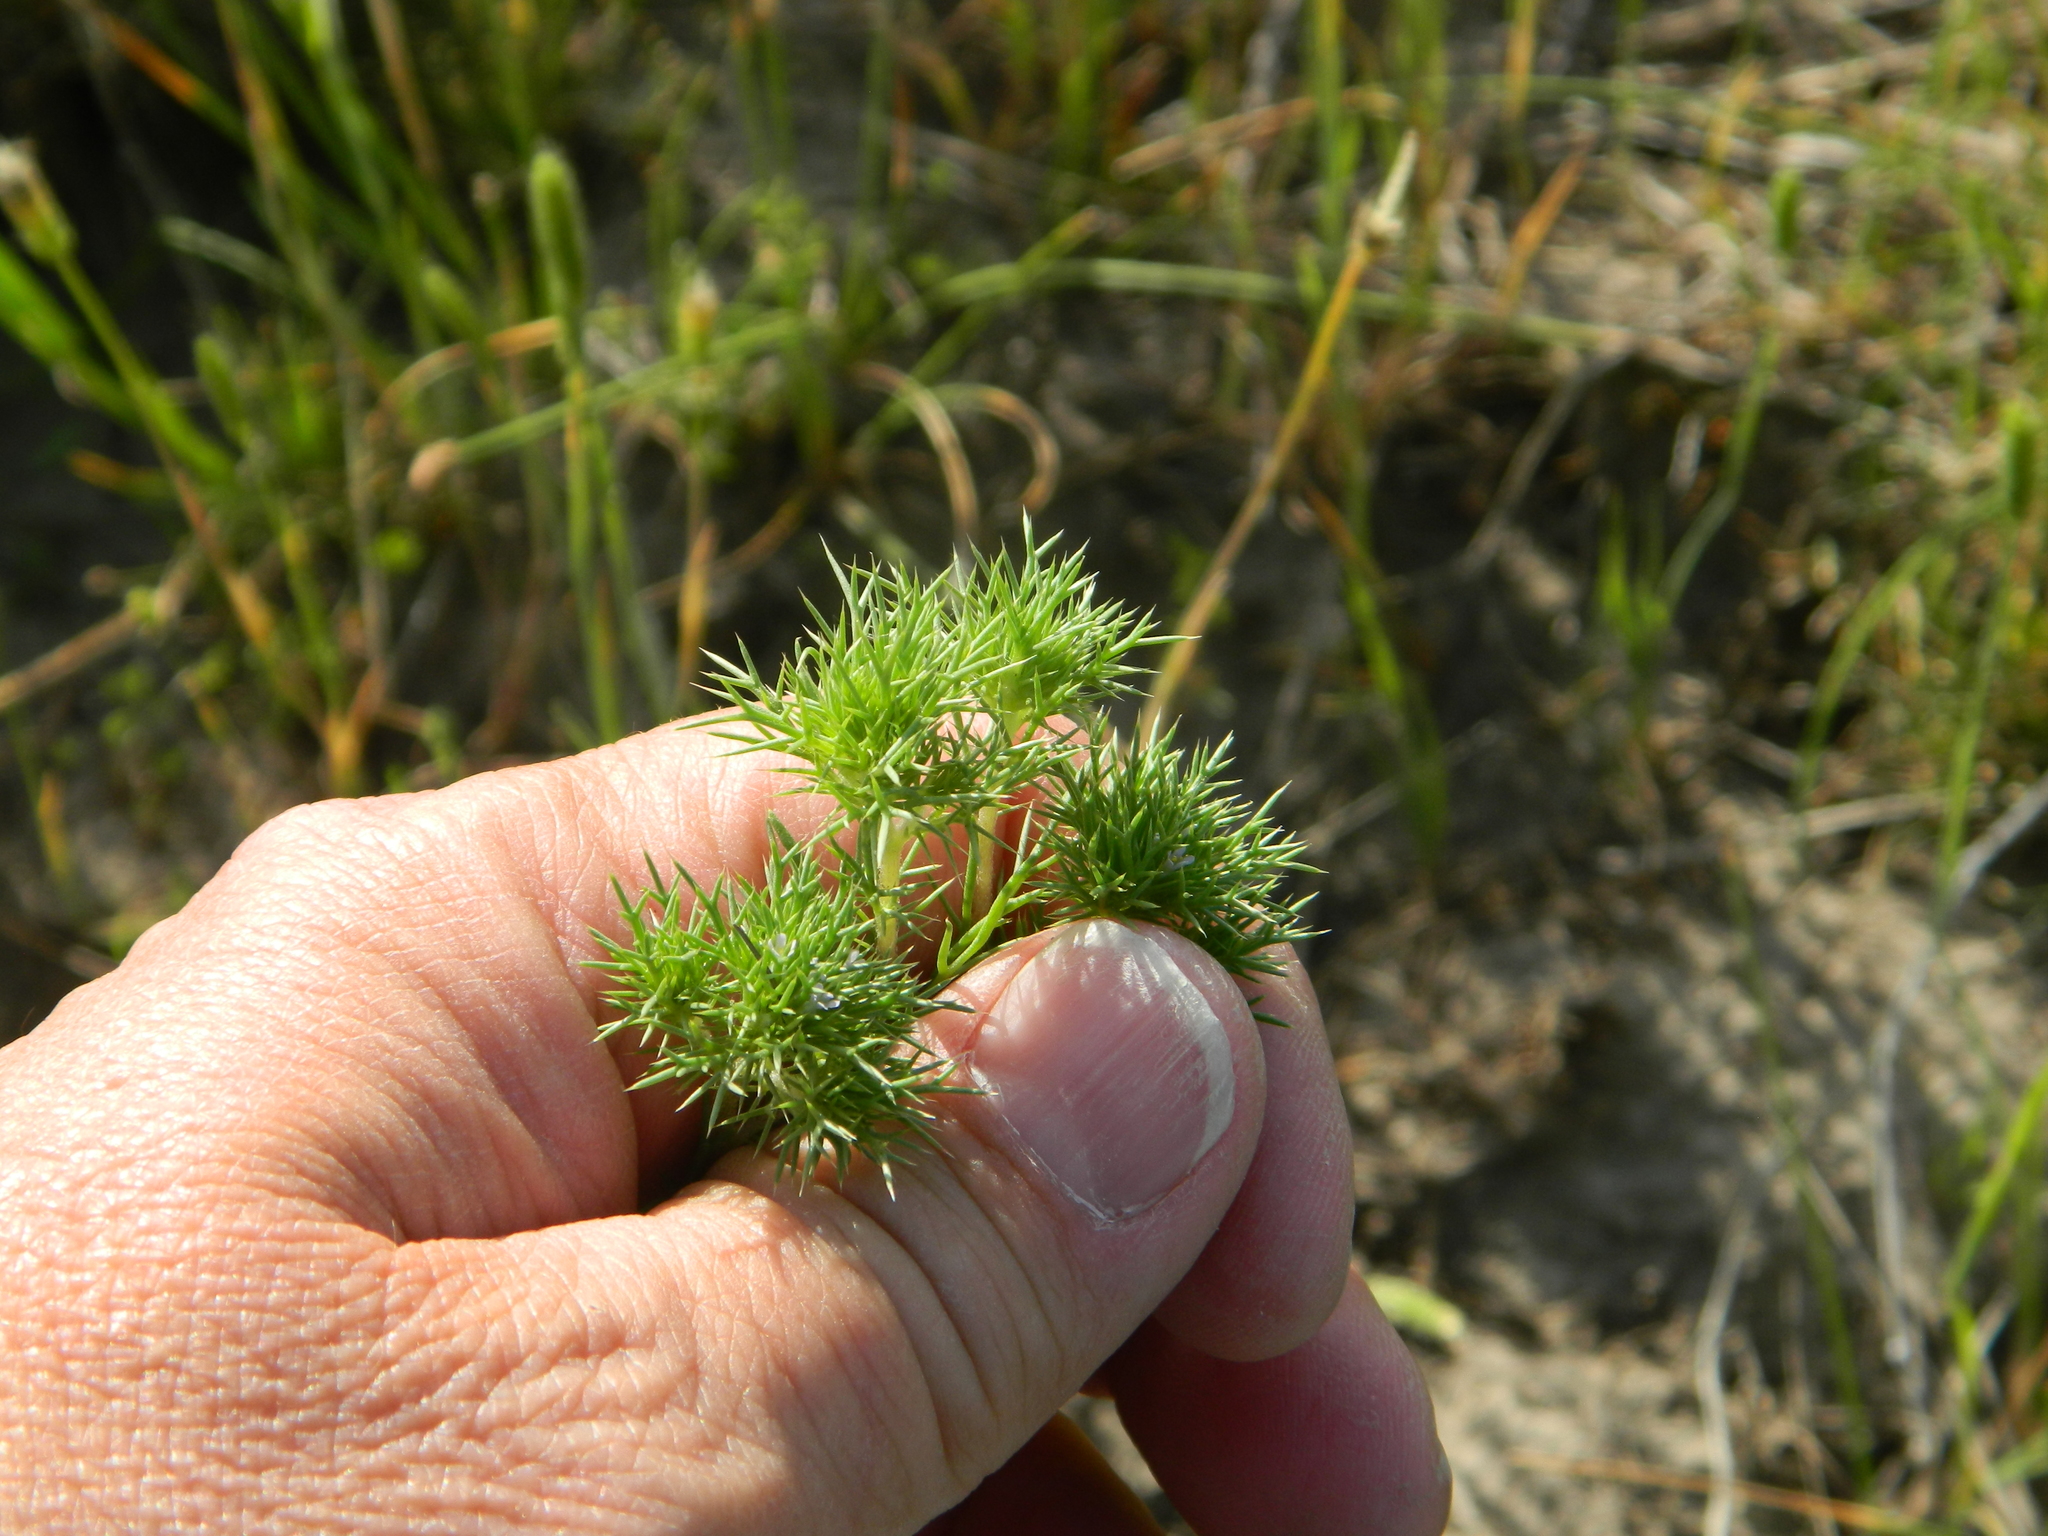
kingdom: Plantae
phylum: Tracheophyta
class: Magnoliopsida
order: Ericales
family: Polemoniaceae
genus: Navarretia
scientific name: Navarretia saximontana
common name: Rocky mountain navarretia
